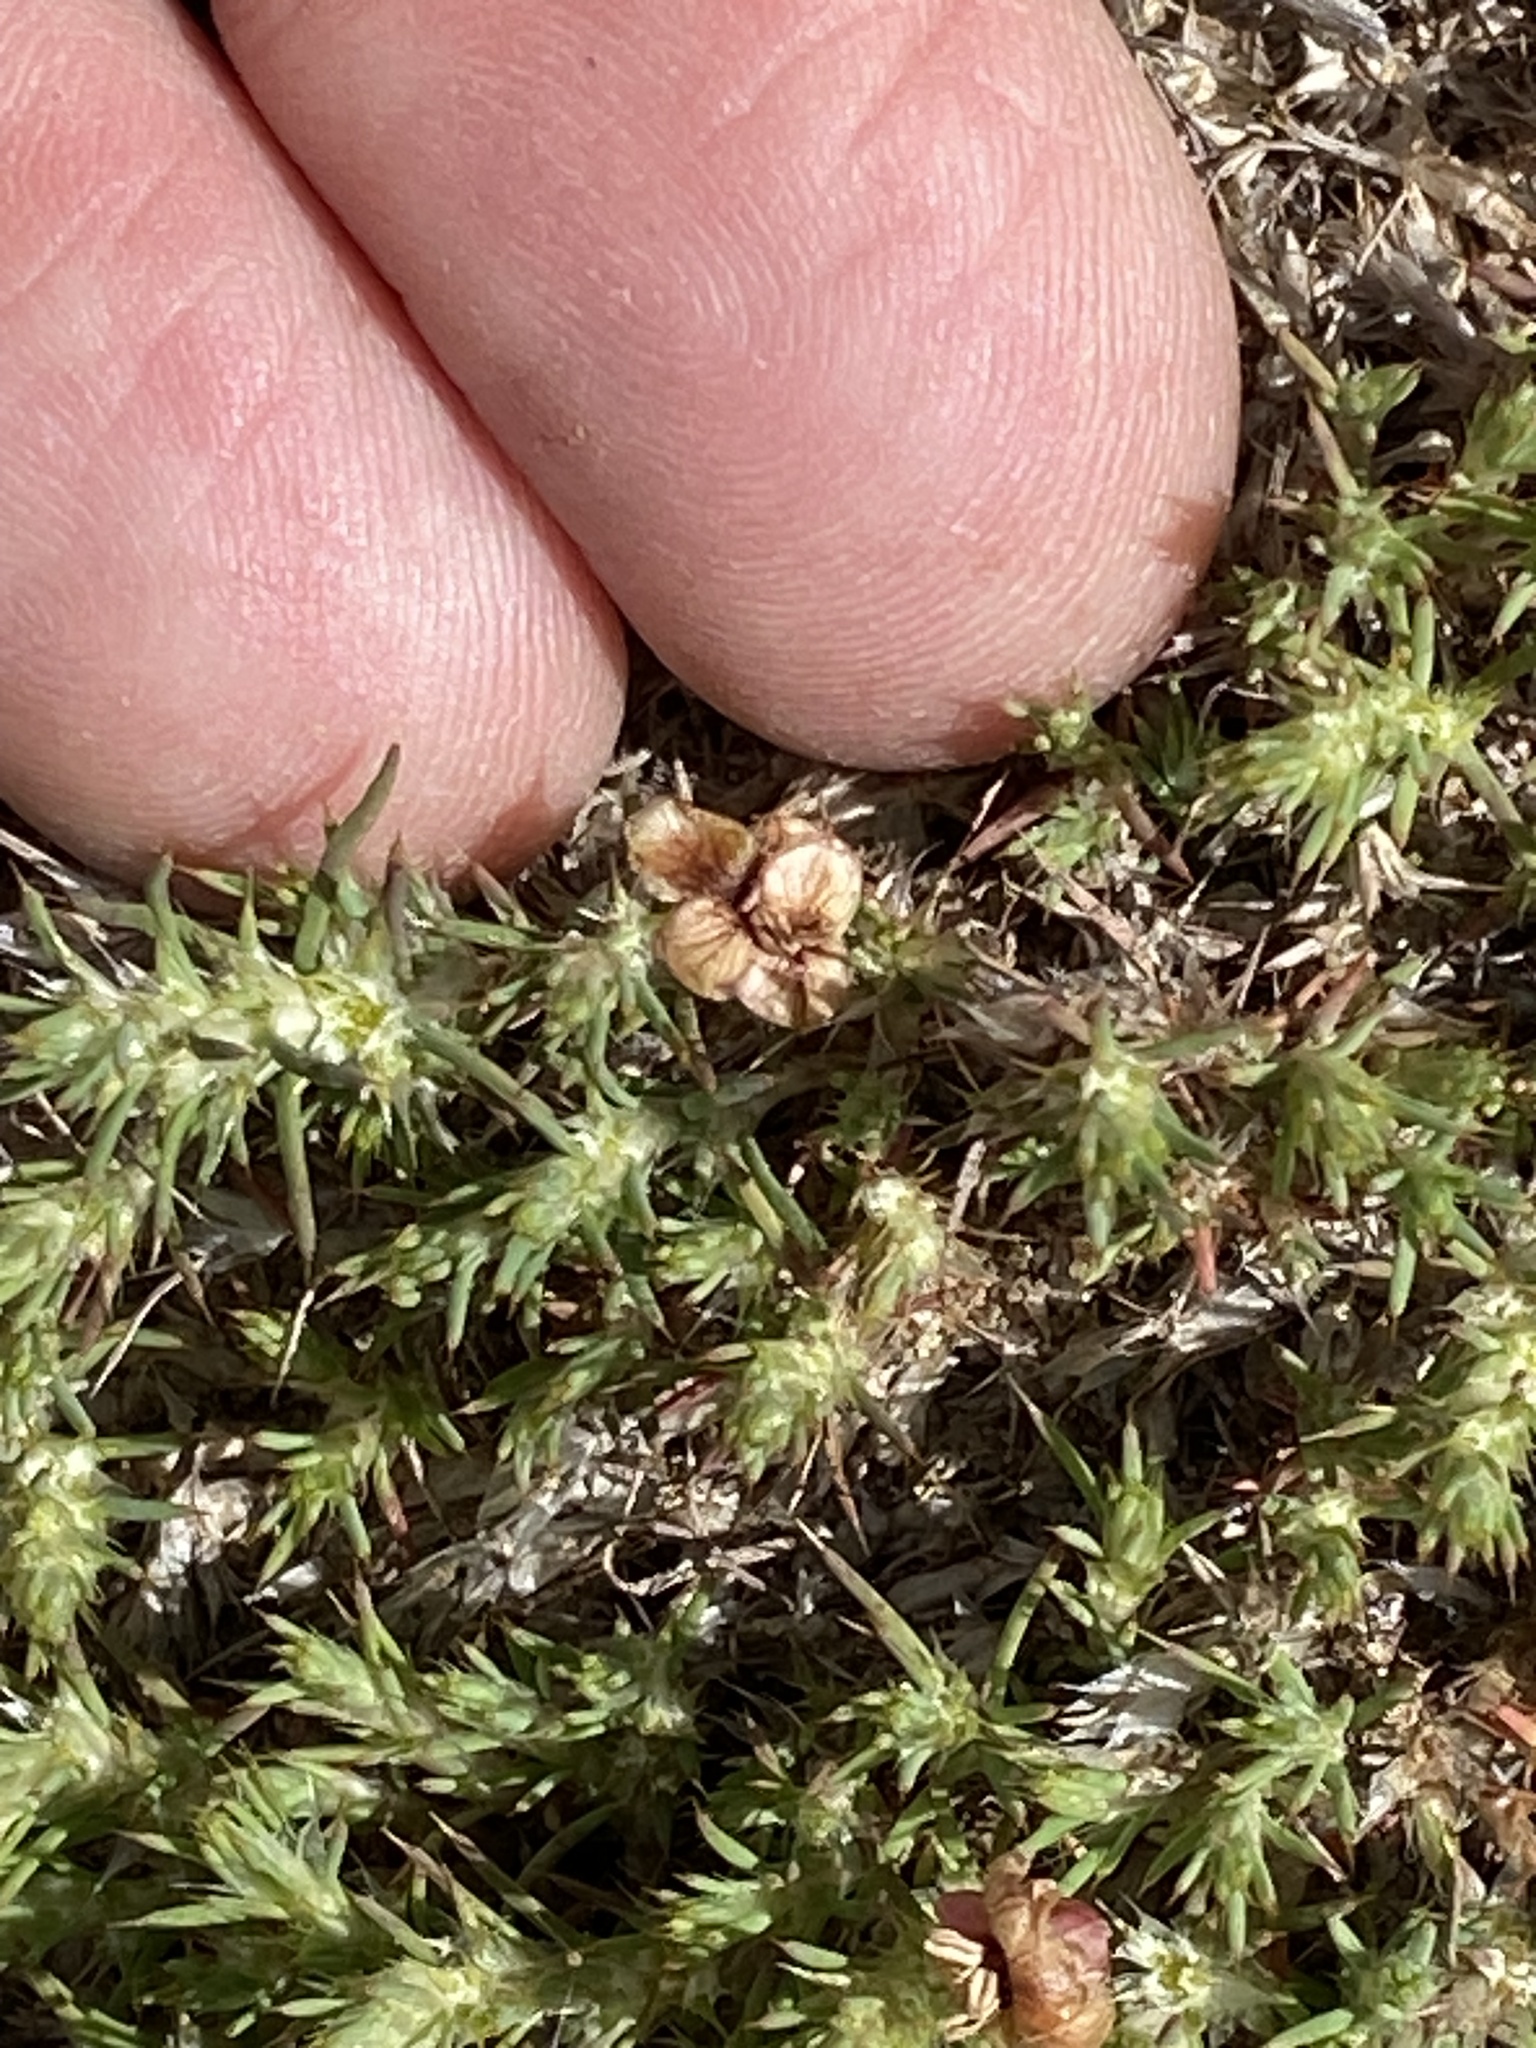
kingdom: Plantae
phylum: Tracheophyta
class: Magnoliopsida
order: Caryophyllales
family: Caryophyllaceae
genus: Cardionema
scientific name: Cardionema ramosissima
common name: Sandcarpet
